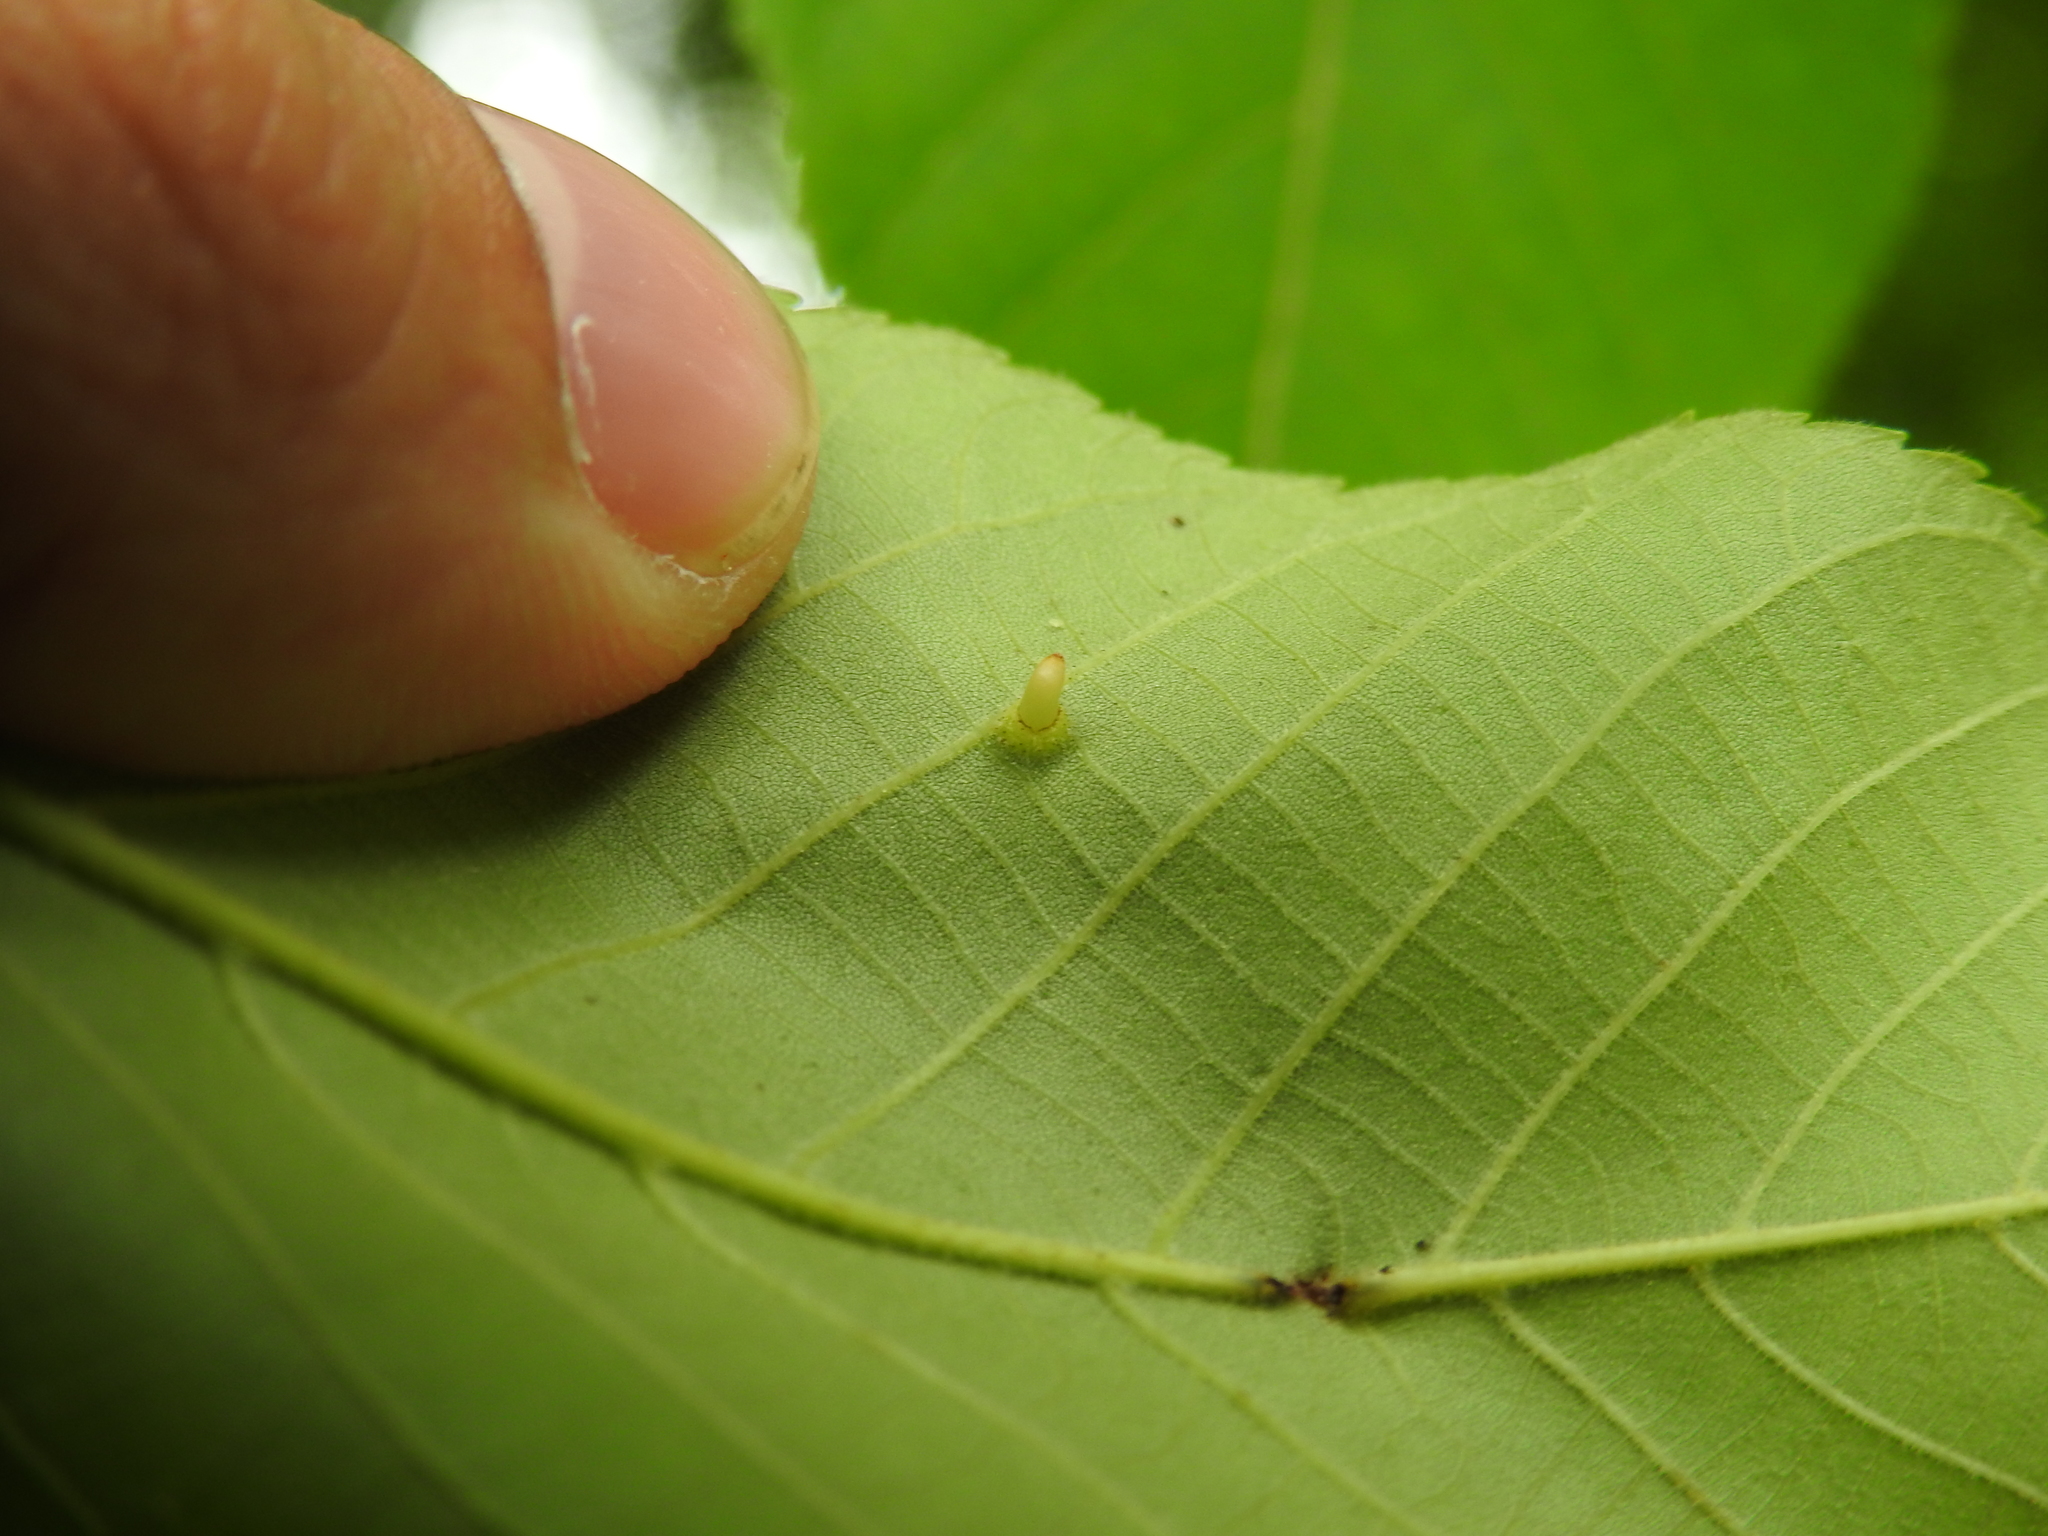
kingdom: Animalia
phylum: Arthropoda
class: Insecta
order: Diptera
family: Cecidomyiidae
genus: Caryomyia
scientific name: Caryomyia subulata
